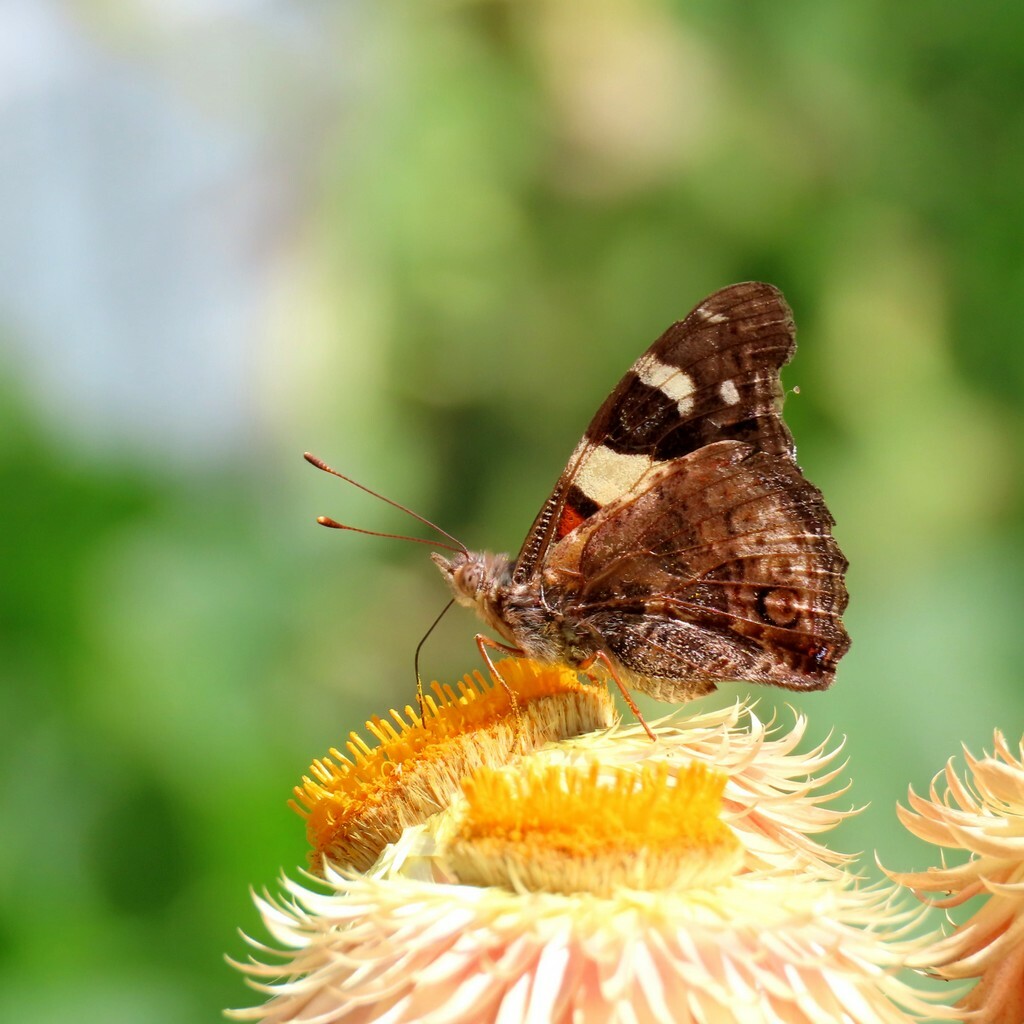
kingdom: Animalia
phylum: Arthropoda
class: Insecta
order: Lepidoptera
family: Nymphalidae
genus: Vanessa
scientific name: Vanessa itea
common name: Yellow admiral
